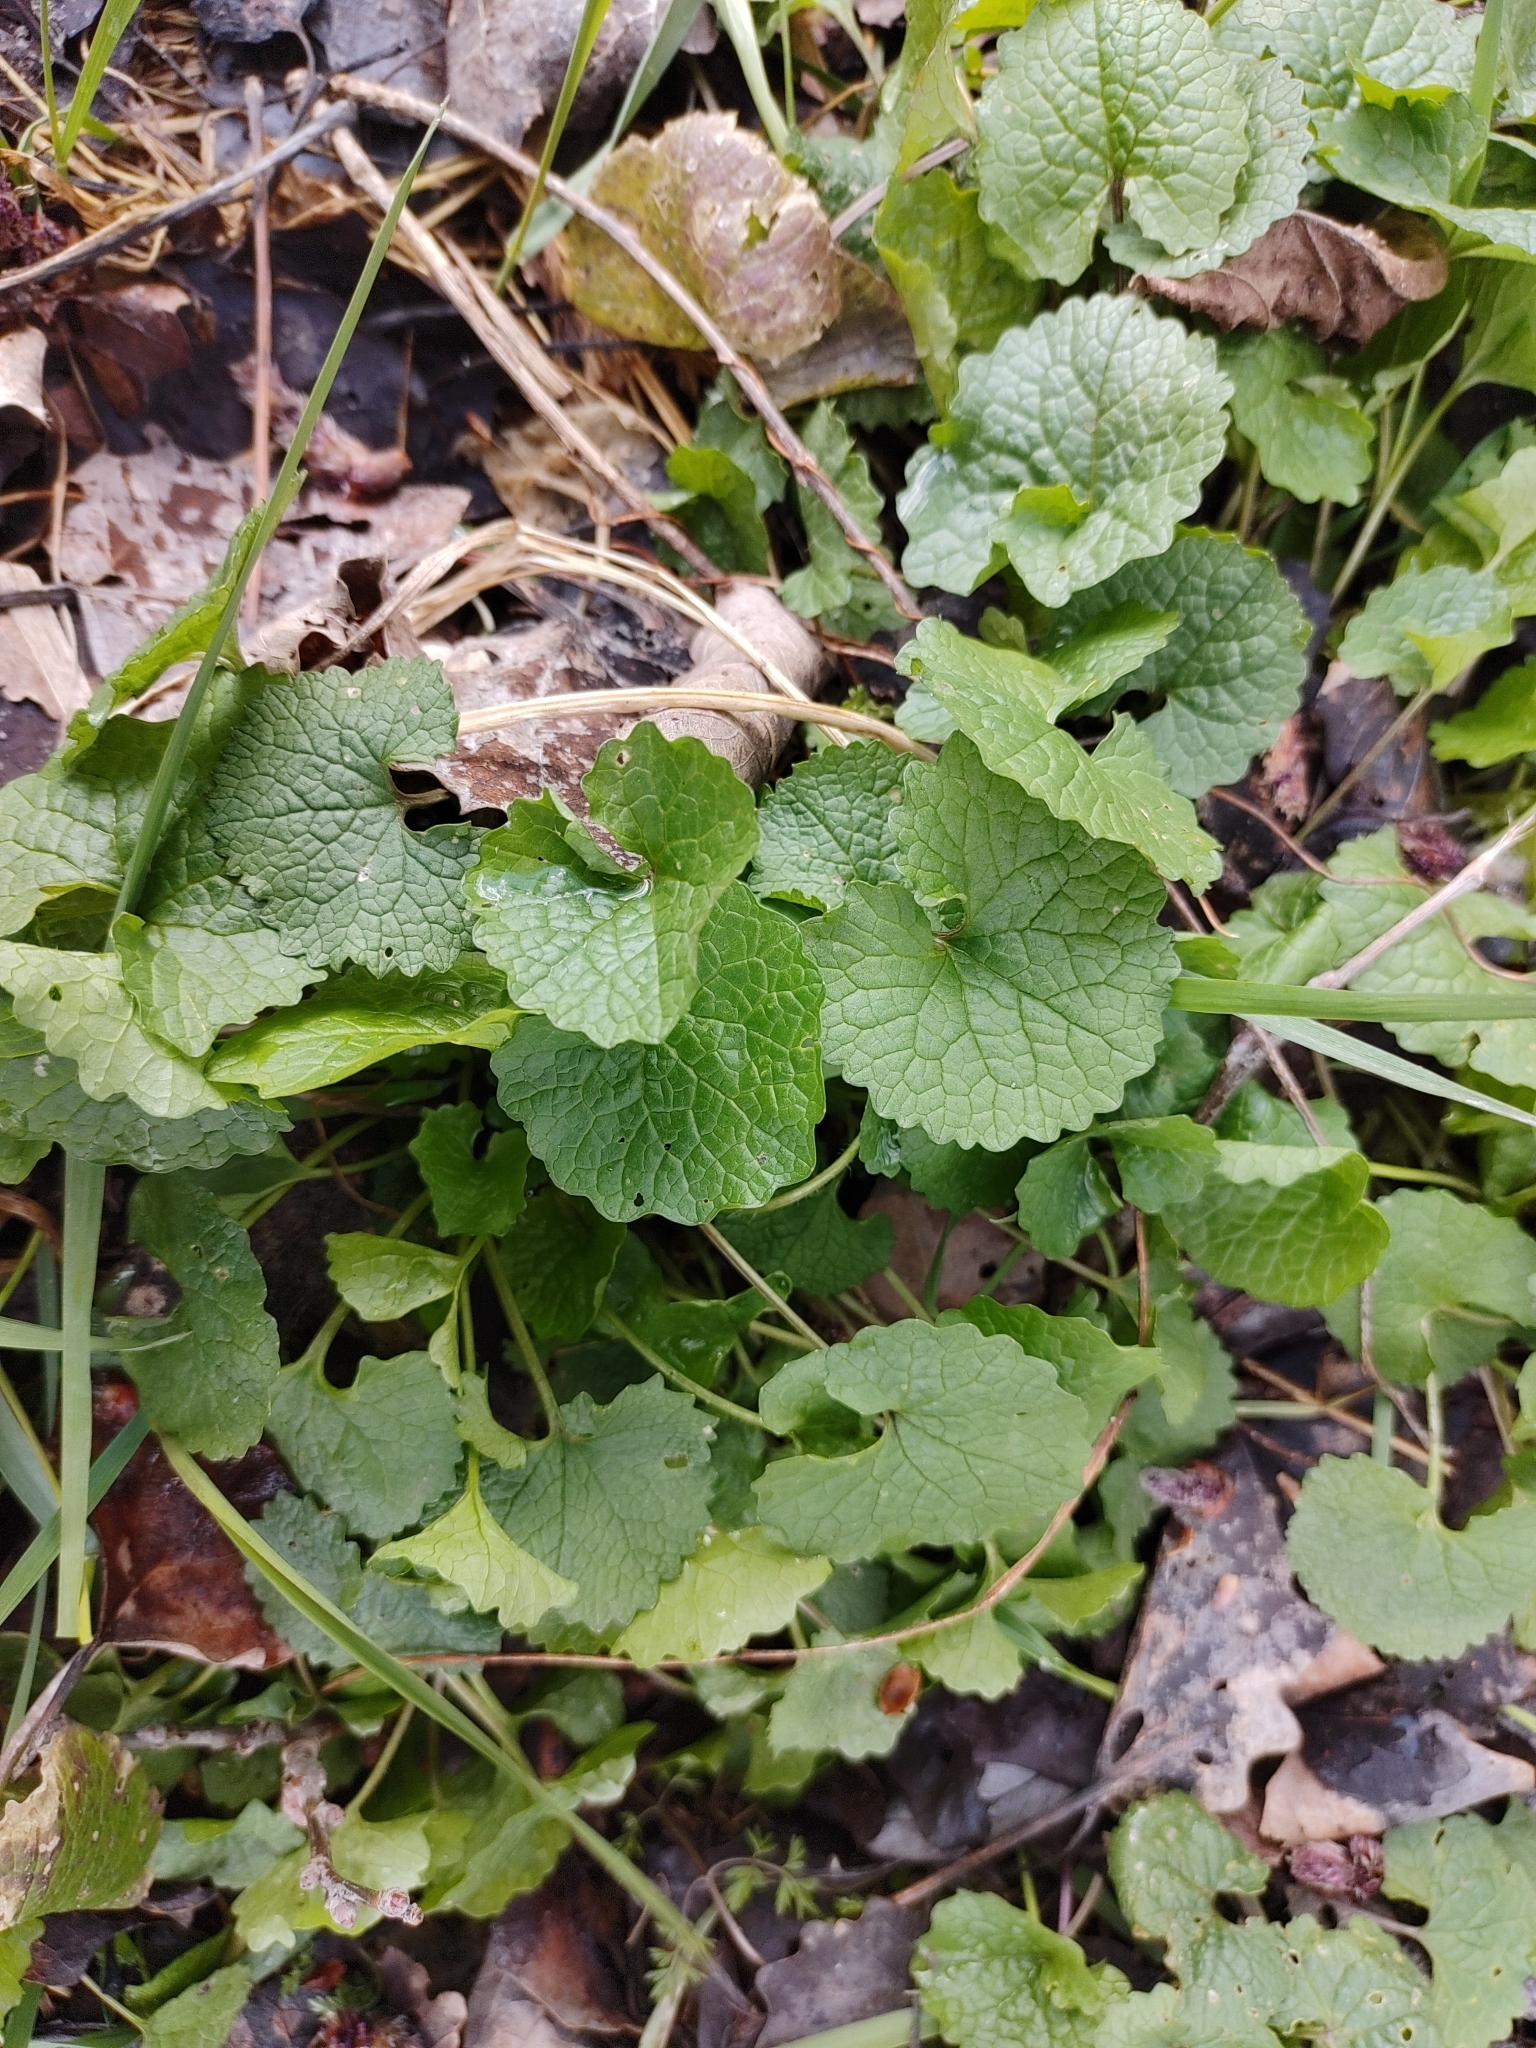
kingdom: Plantae
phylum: Tracheophyta
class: Magnoliopsida
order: Brassicales
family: Brassicaceae
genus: Alliaria
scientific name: Alliaria petiolata
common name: Garlic mustard
